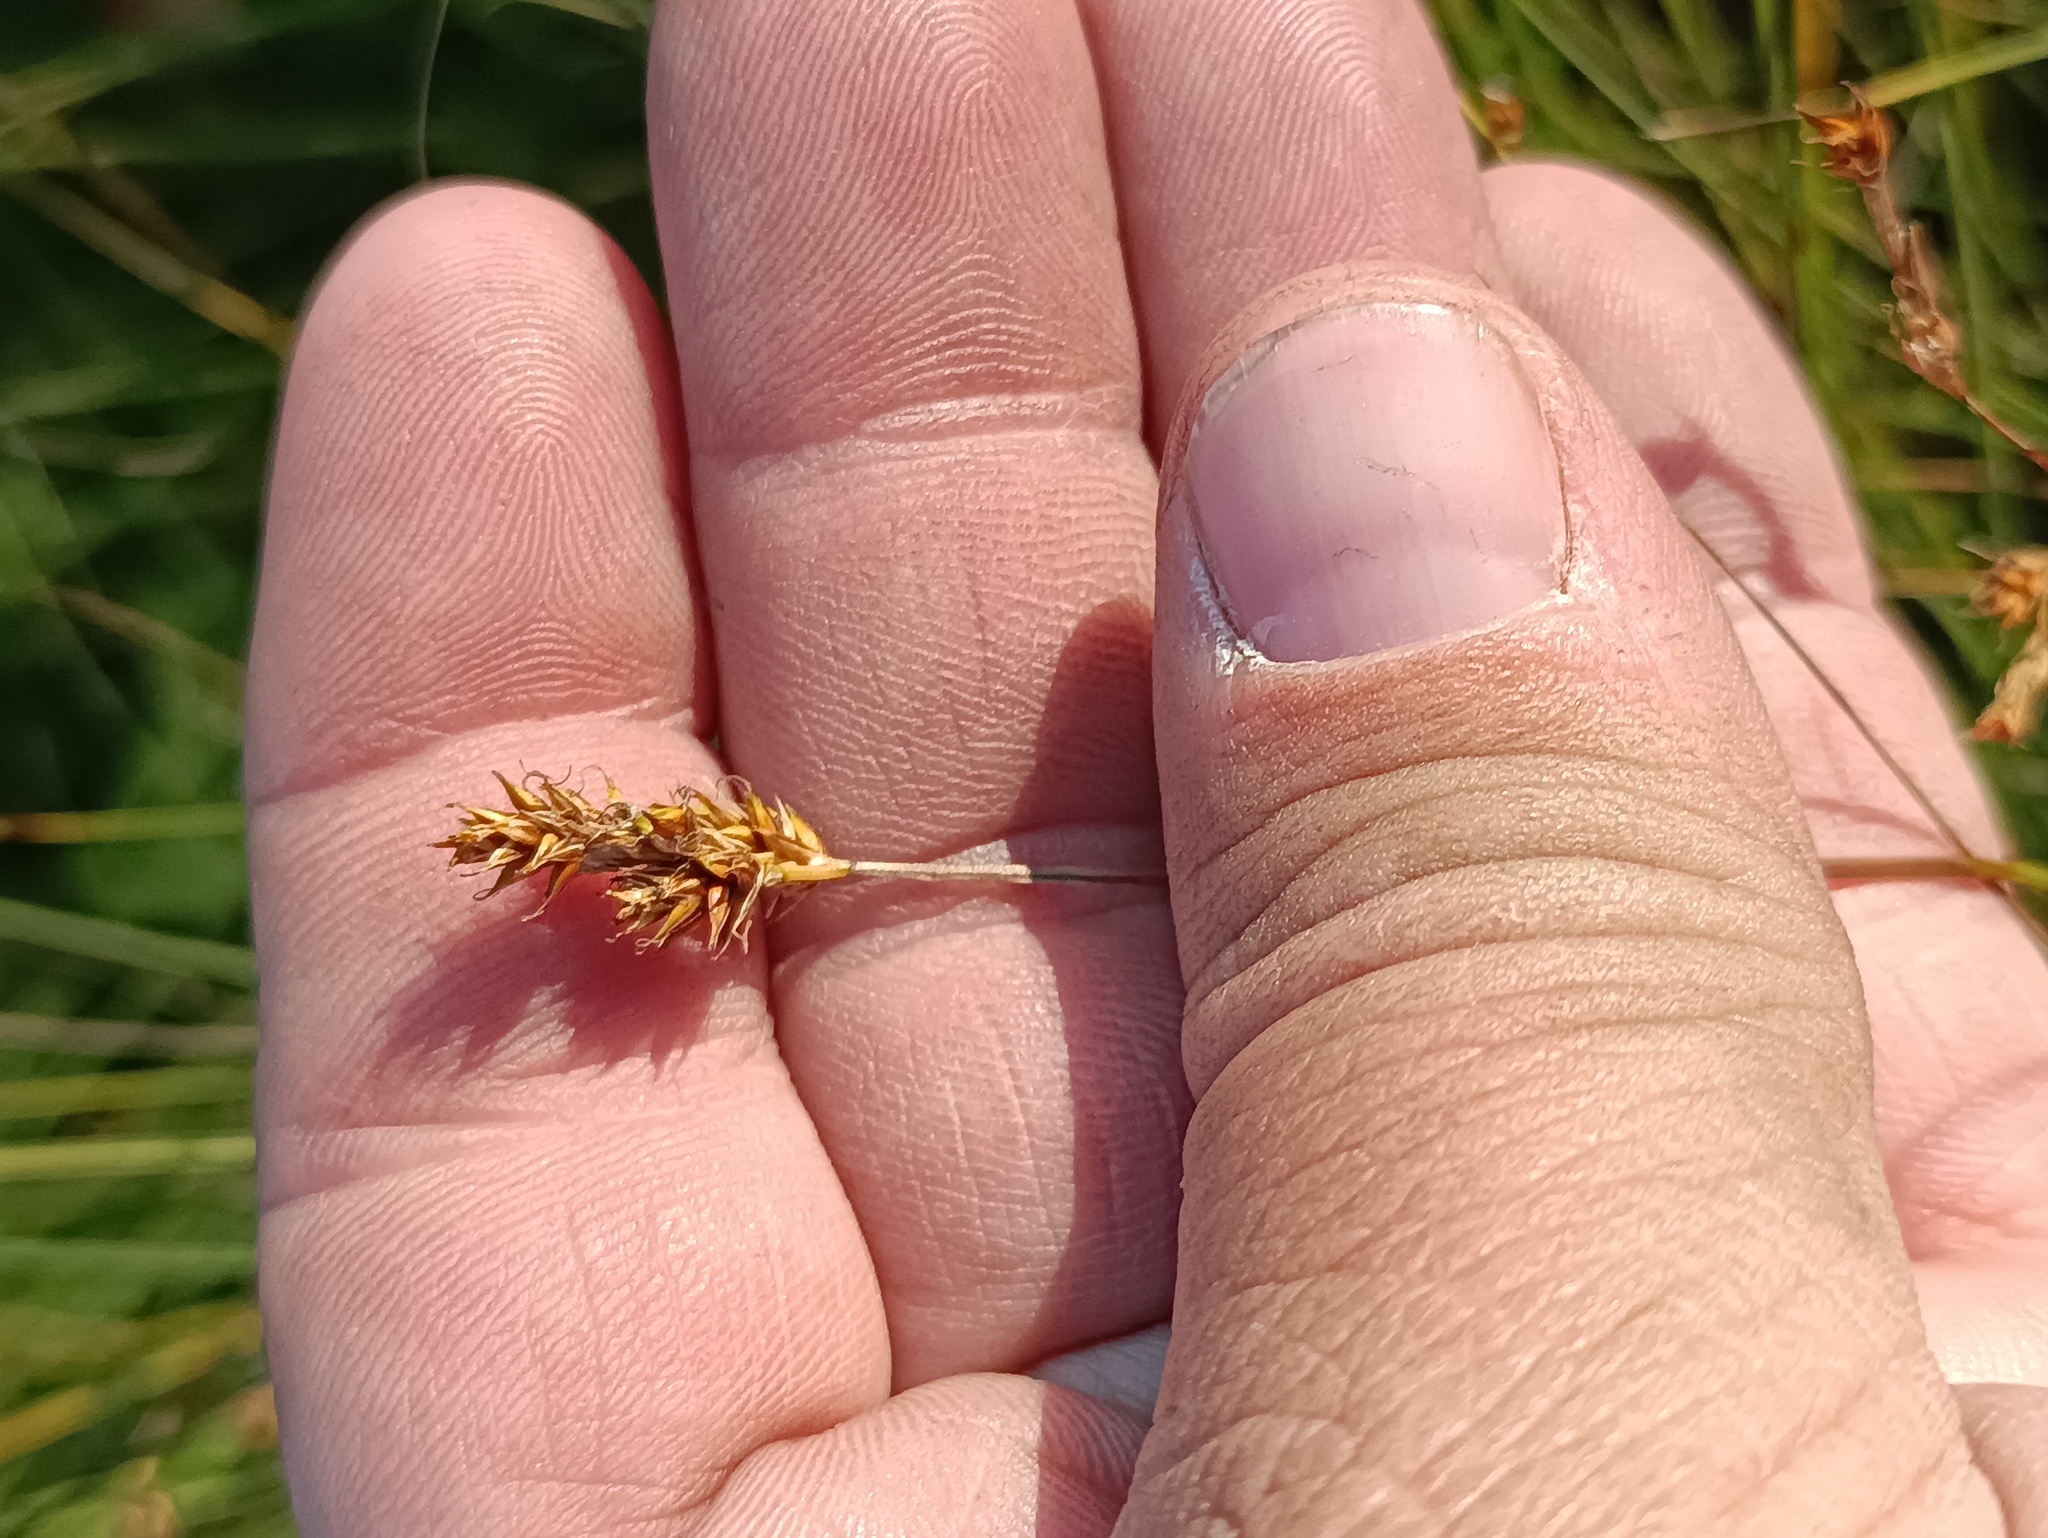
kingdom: Plantae
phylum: Tracheophyta
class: Liliopsida
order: Poales
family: Cyperaceae
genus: Carex
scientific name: Carex praecox
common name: Early sedge
